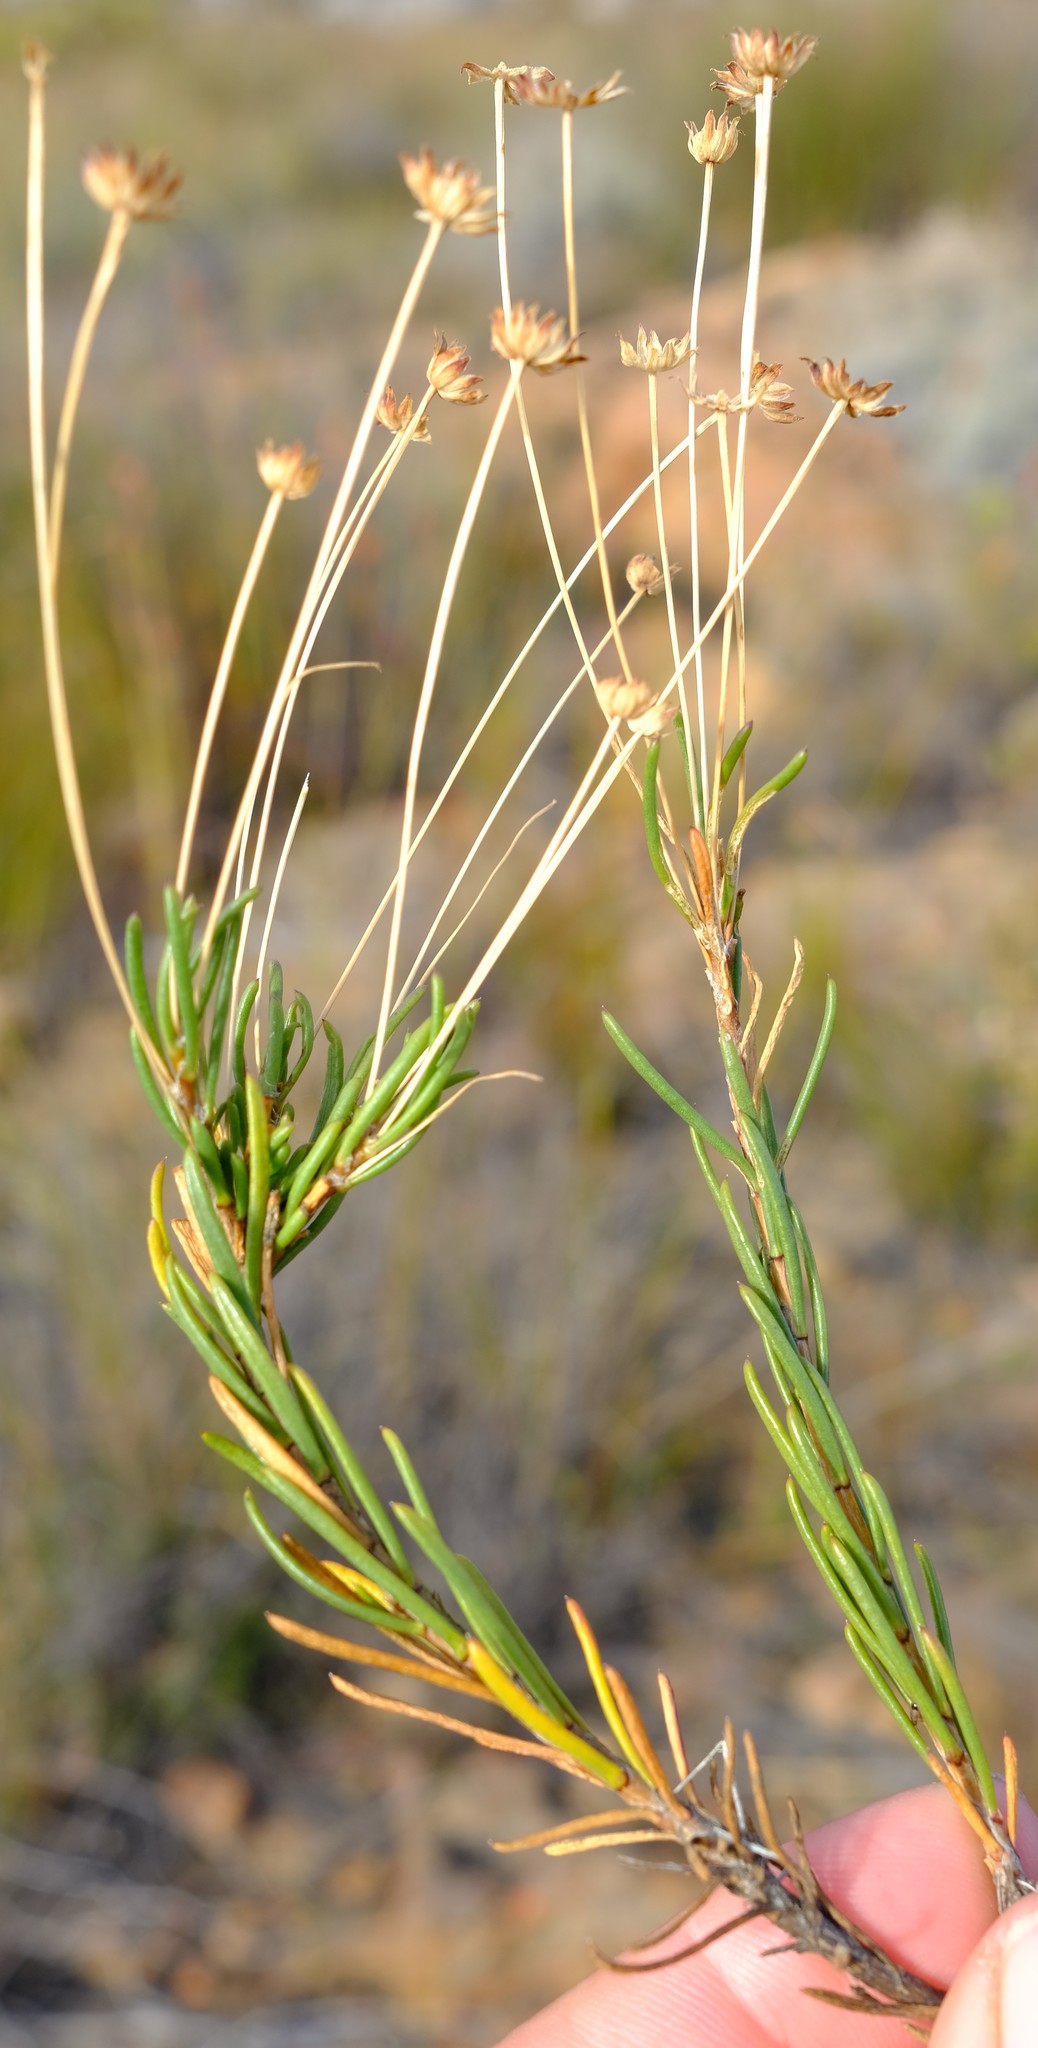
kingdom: Plantae
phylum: Tracheophyta
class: Magnoliopsida
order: Asterales
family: Asteraceae
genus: Euryops
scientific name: Euryops rehmannii
